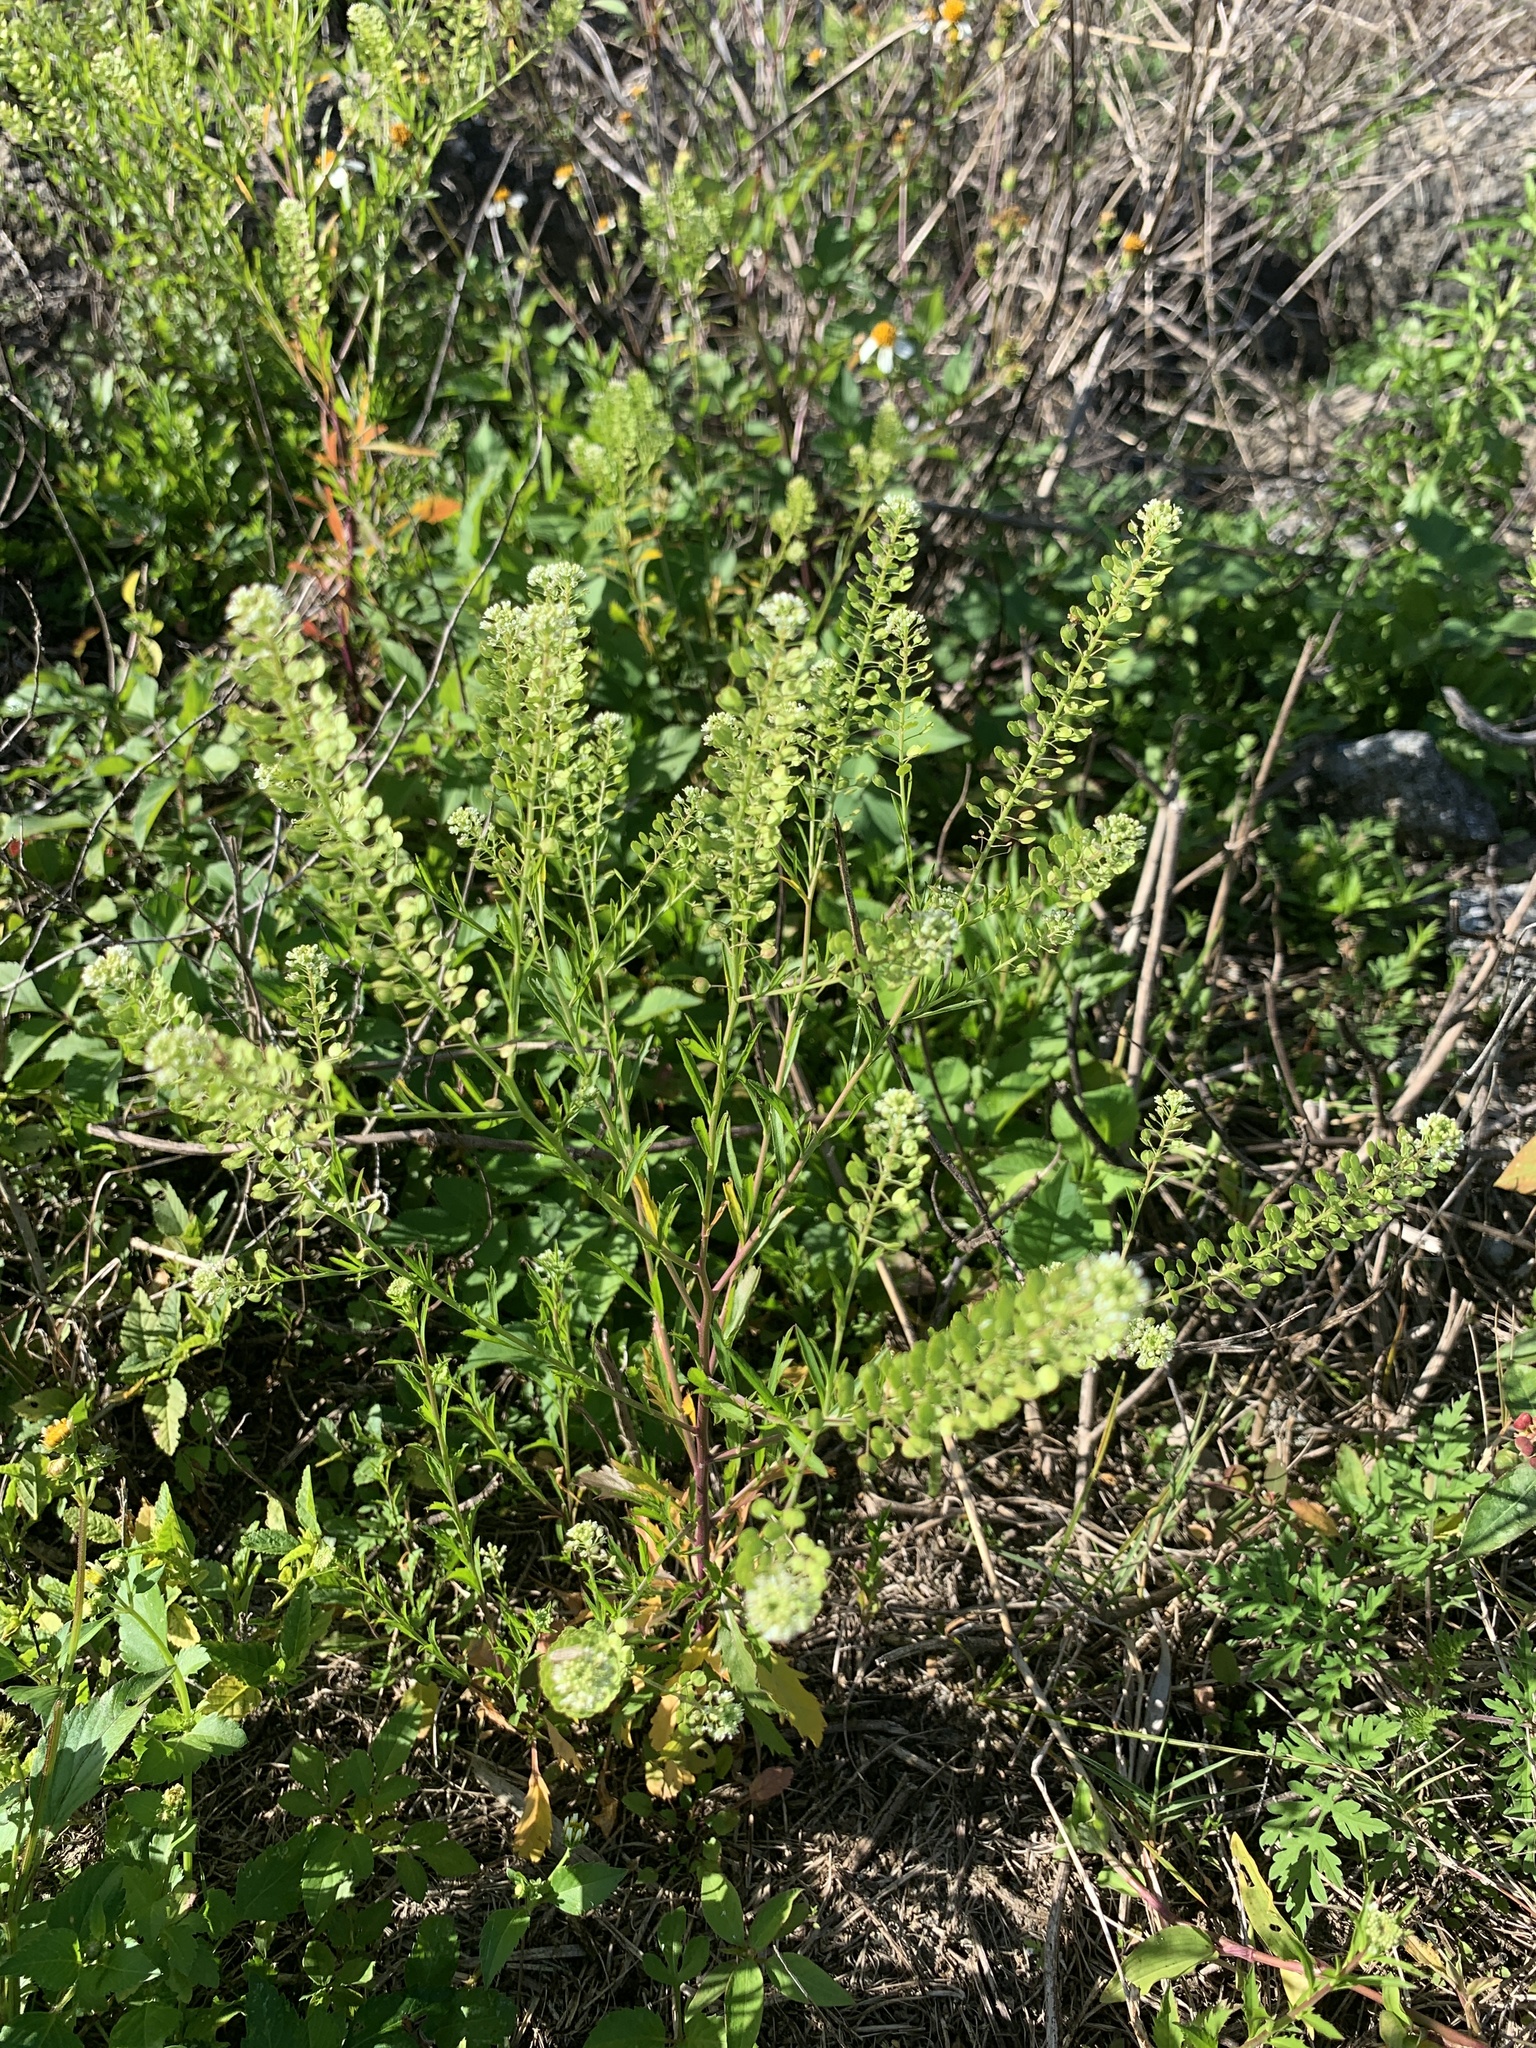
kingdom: Plantae
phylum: Tracheophyta
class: Magnoliopsida
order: Brassicales
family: Brassicaceae
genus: Lepidium
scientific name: Lepidium virginicum
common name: Least pepperwort
